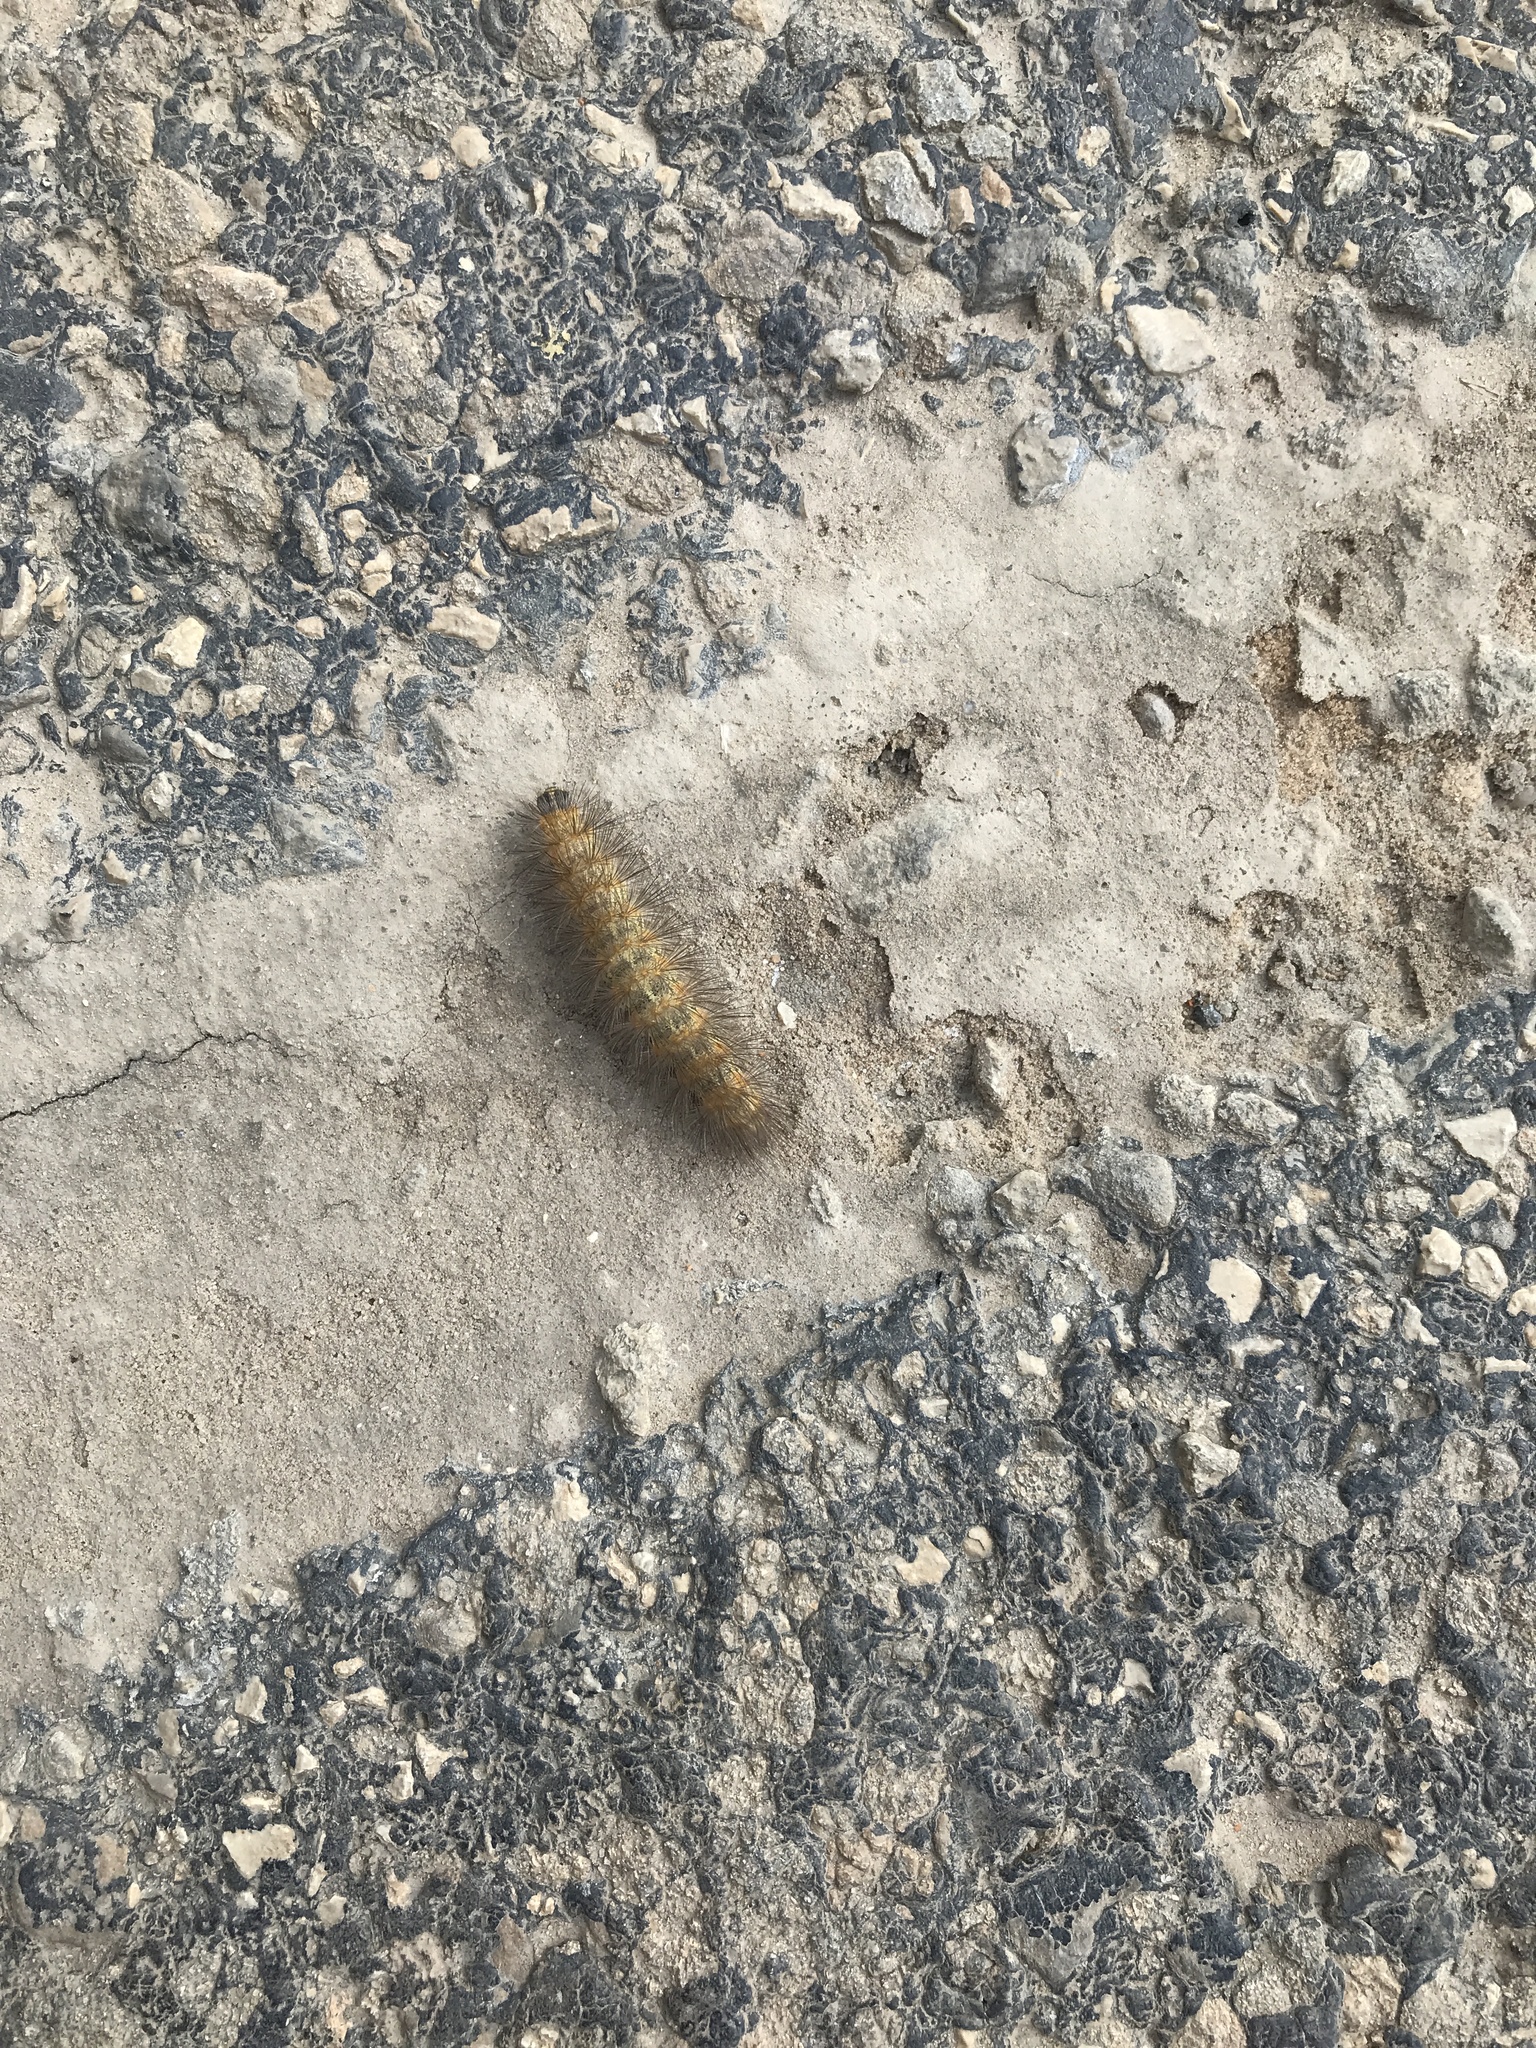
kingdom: Animalia
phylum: Arthropoda
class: Insecta
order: Lepidoptera
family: Erebidae
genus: Estigmene
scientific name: Estigmene acrea
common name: Salt marsh moth
